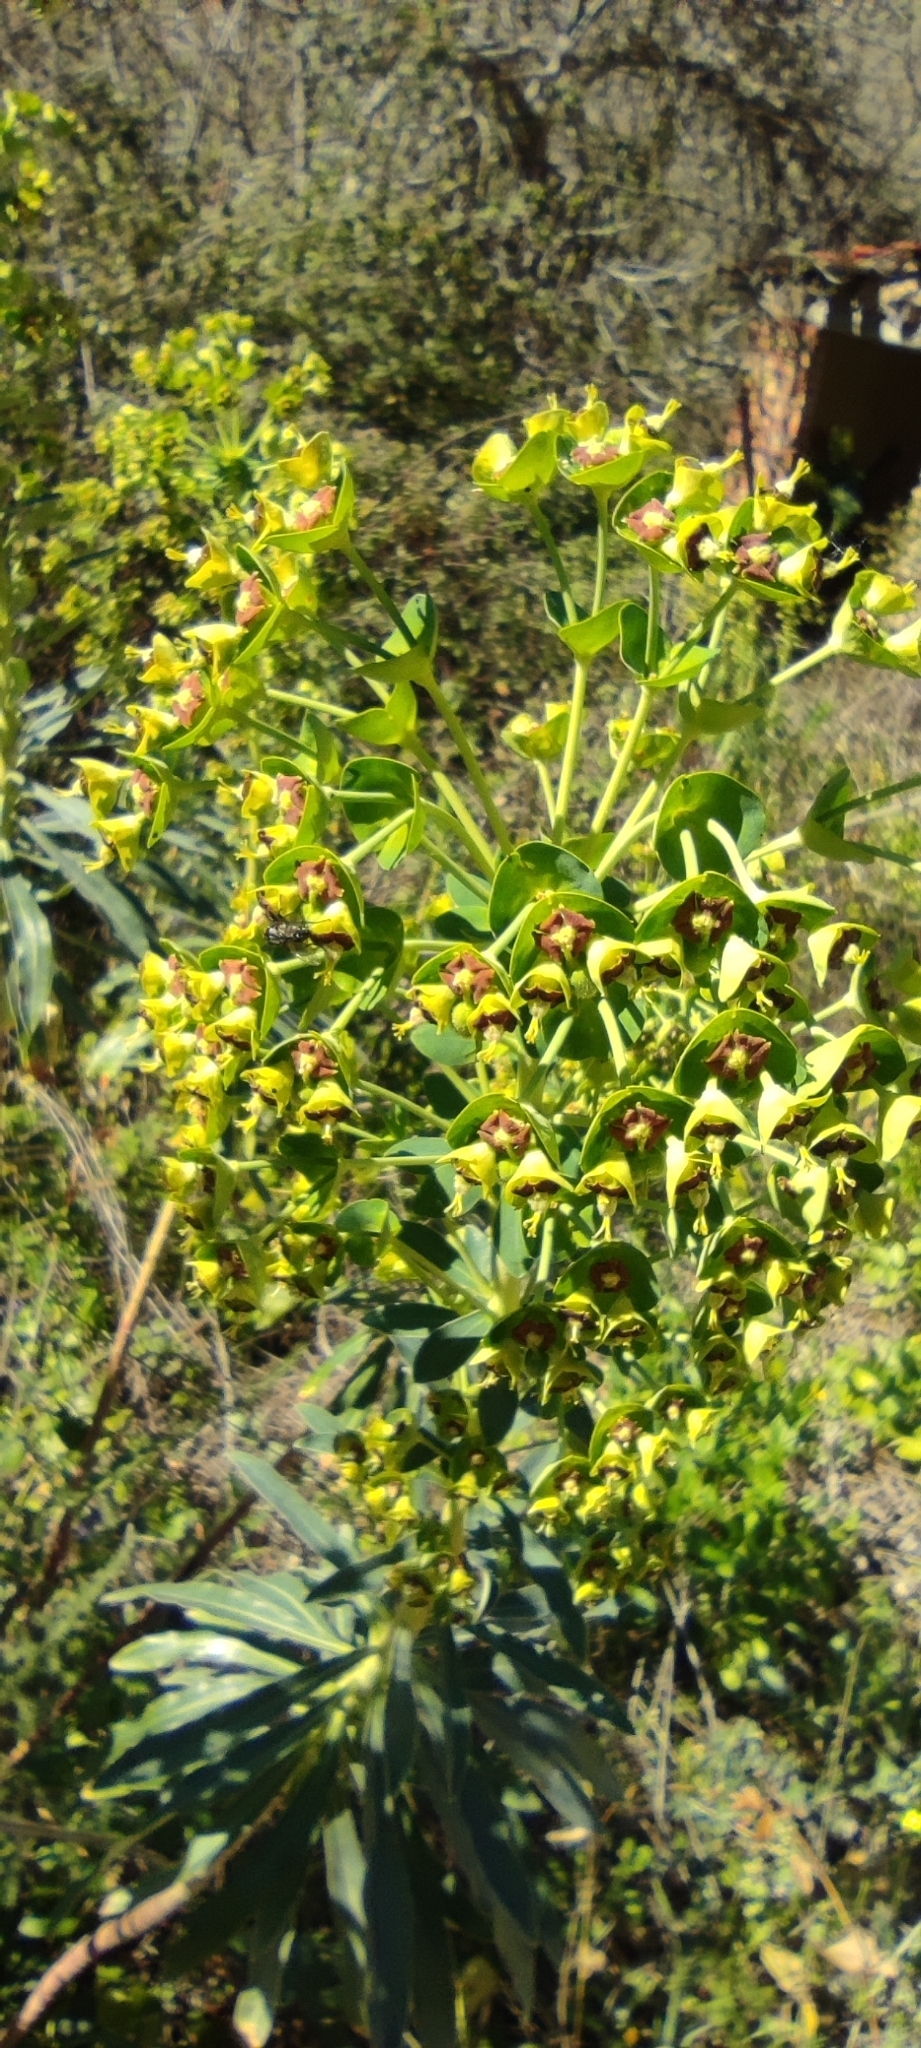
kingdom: Plantae
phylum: Tracheophyta
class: Magnoliopsida
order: Malpighiales
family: Euphorbiaceae
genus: Euphorbia
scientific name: Euphorbia characias
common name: Mediterranean spurge
